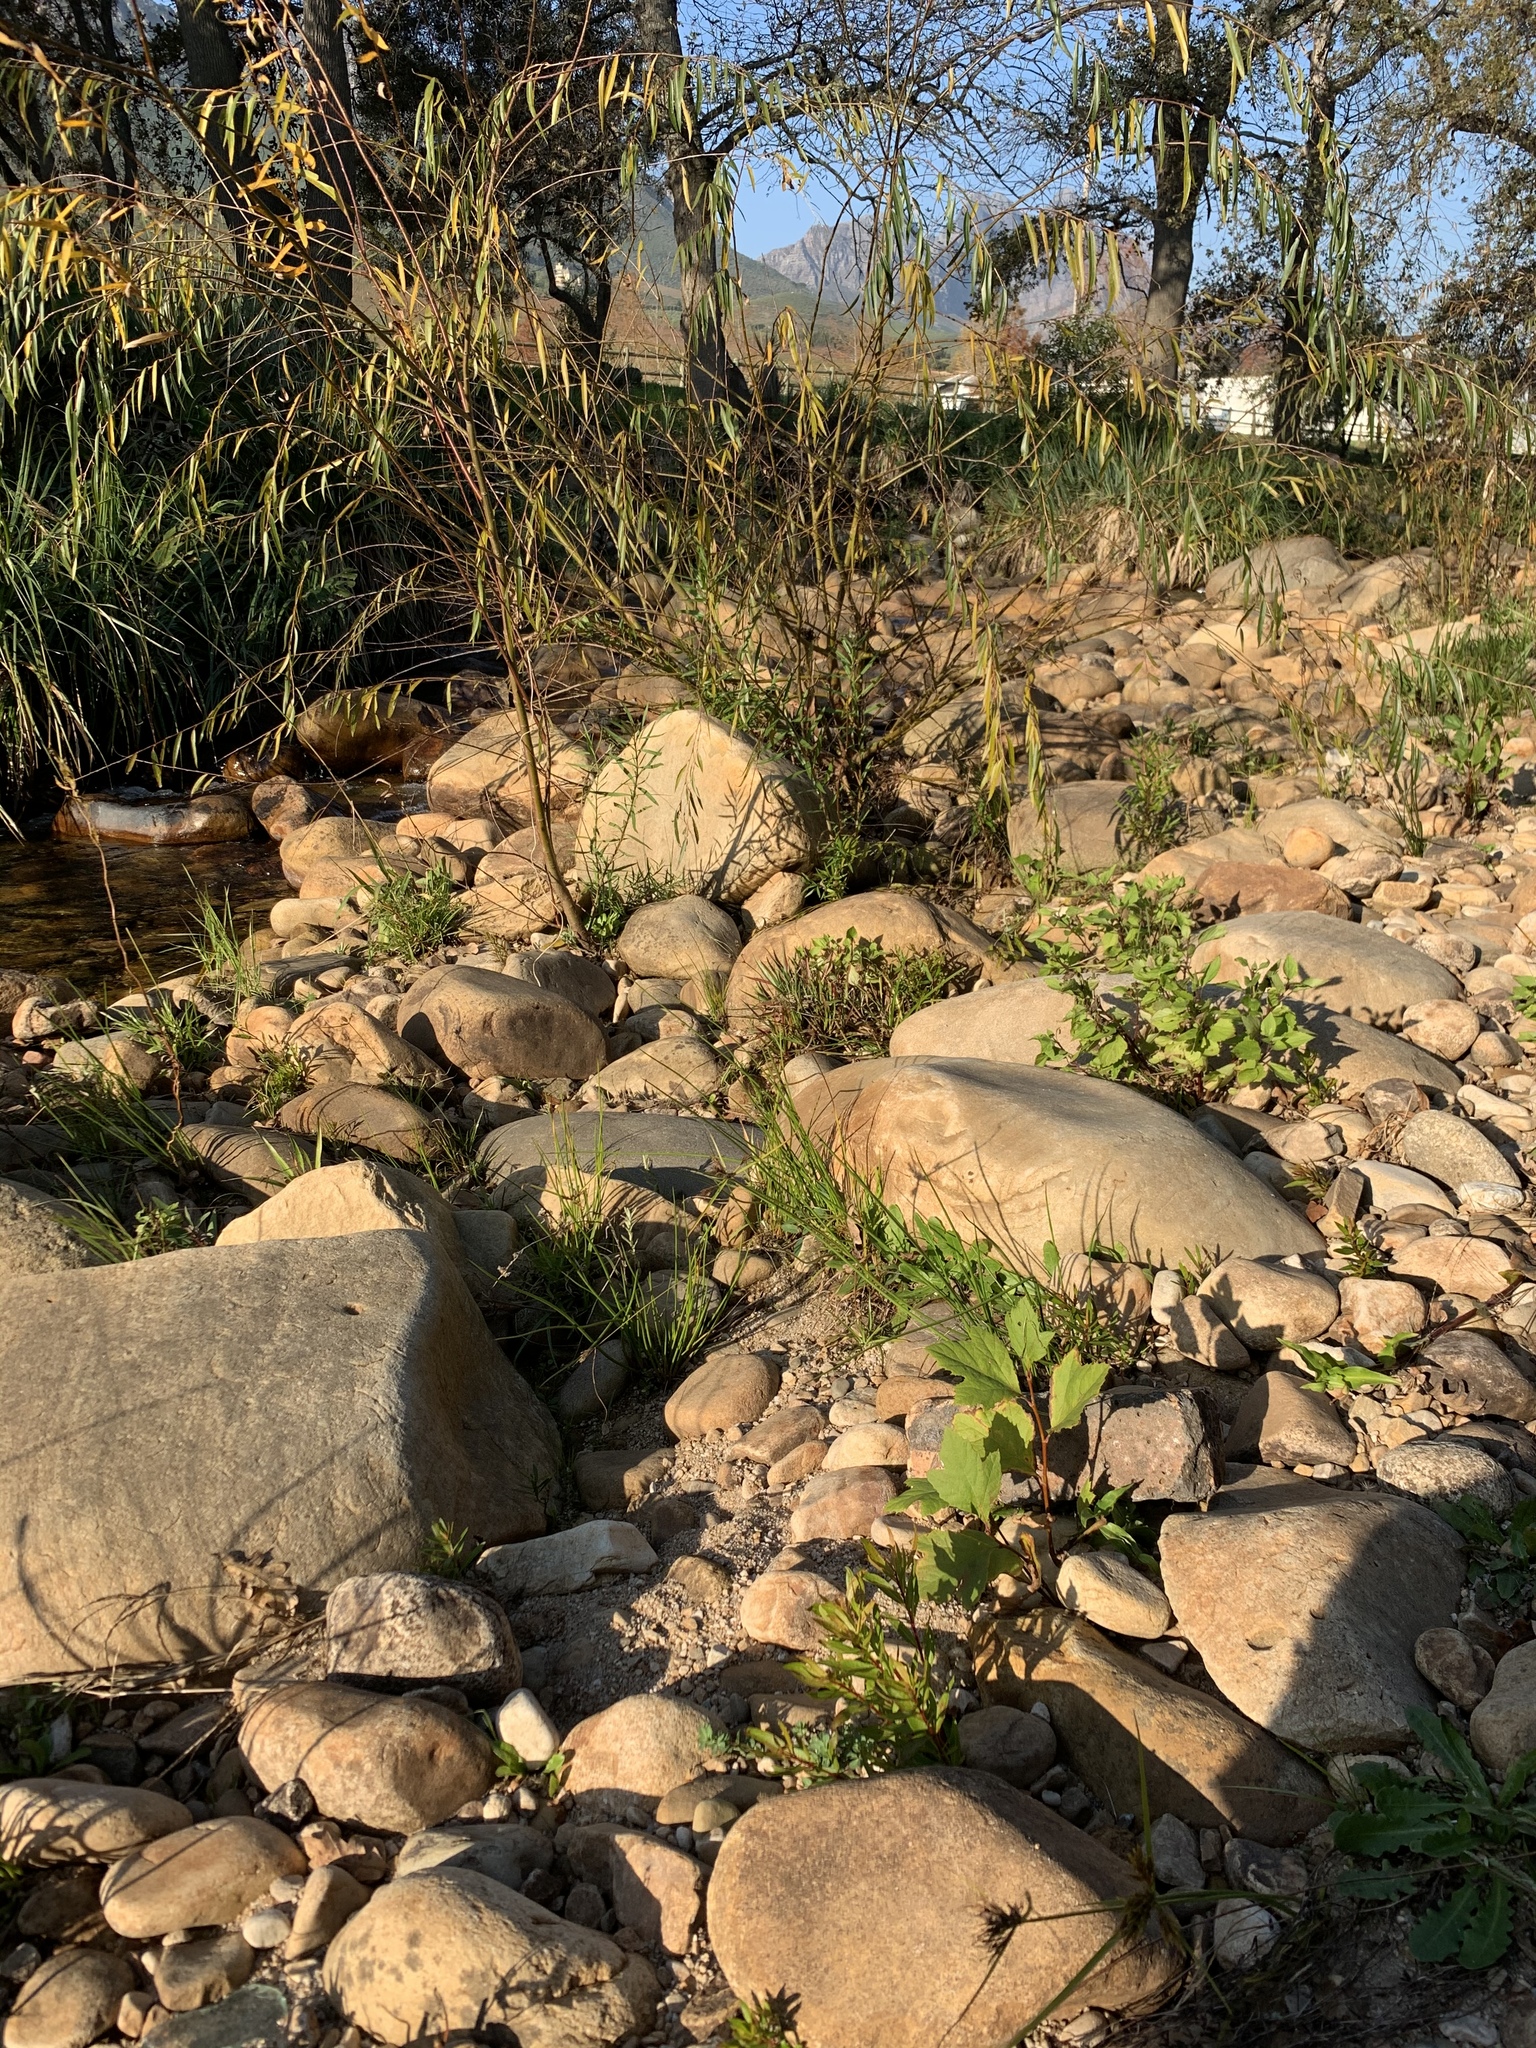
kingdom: Plantae
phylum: Tracheophyta
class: Magnoliopsida
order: Proteales
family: Platanaceae
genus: Platanus
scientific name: Platanus hispanica
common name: London plane
